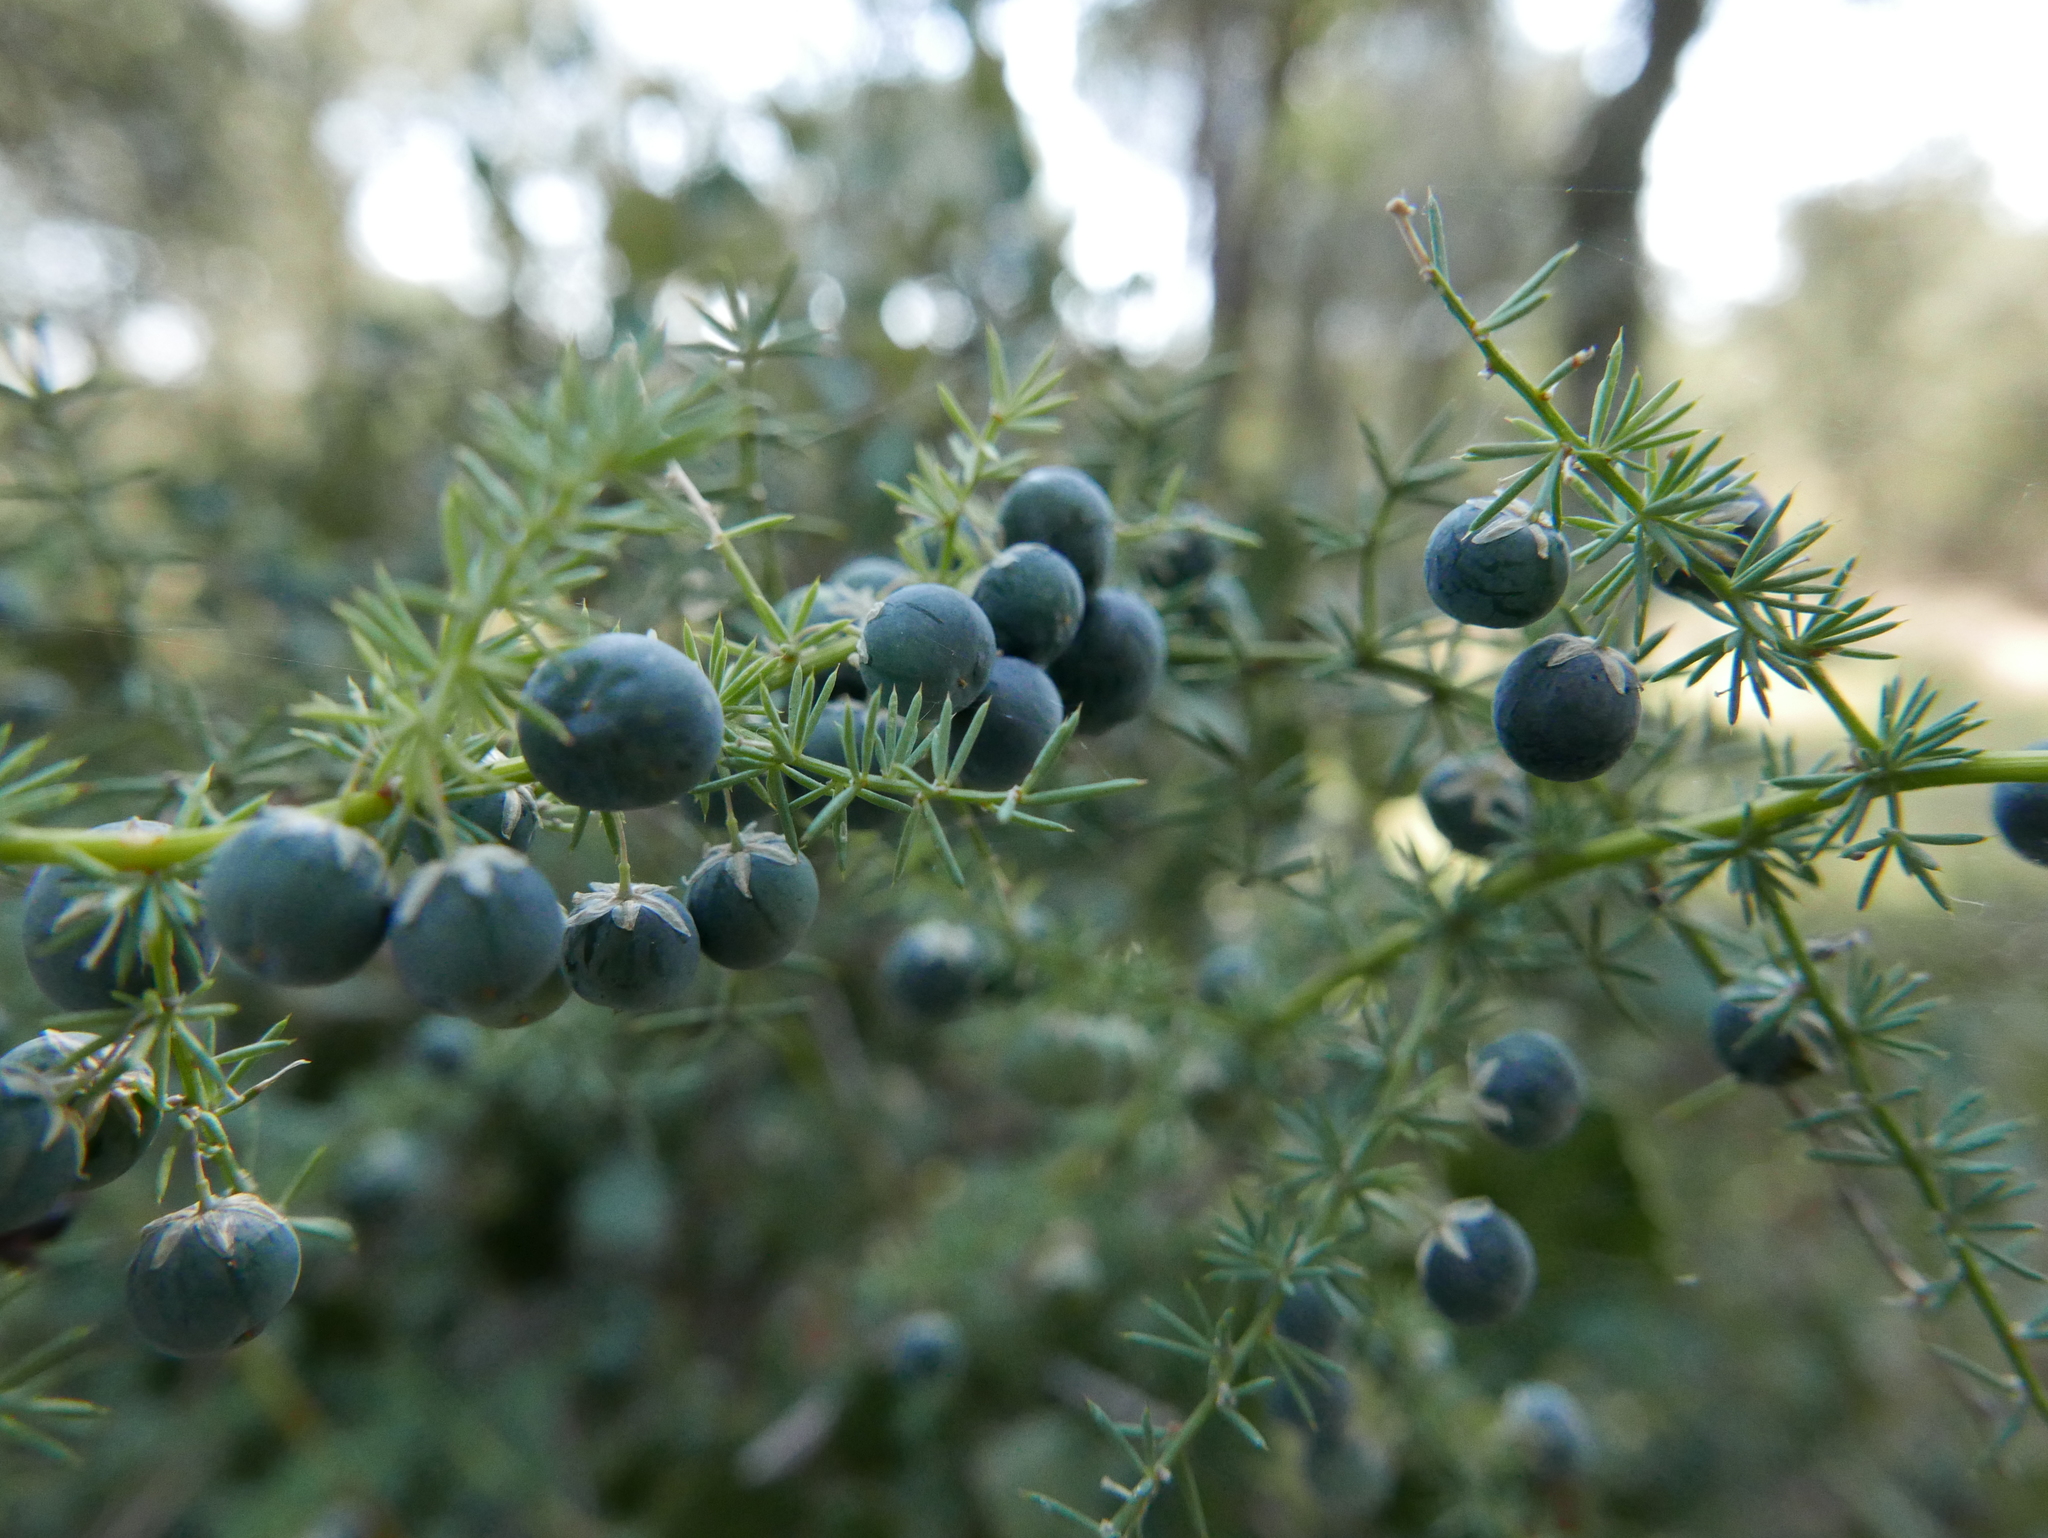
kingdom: Plantae
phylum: Tracheophyta
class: Liliopsida
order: Asparagales
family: Asparagaceae
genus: Asparagus
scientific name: Asparagus acutifolius
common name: Wild asparagus
